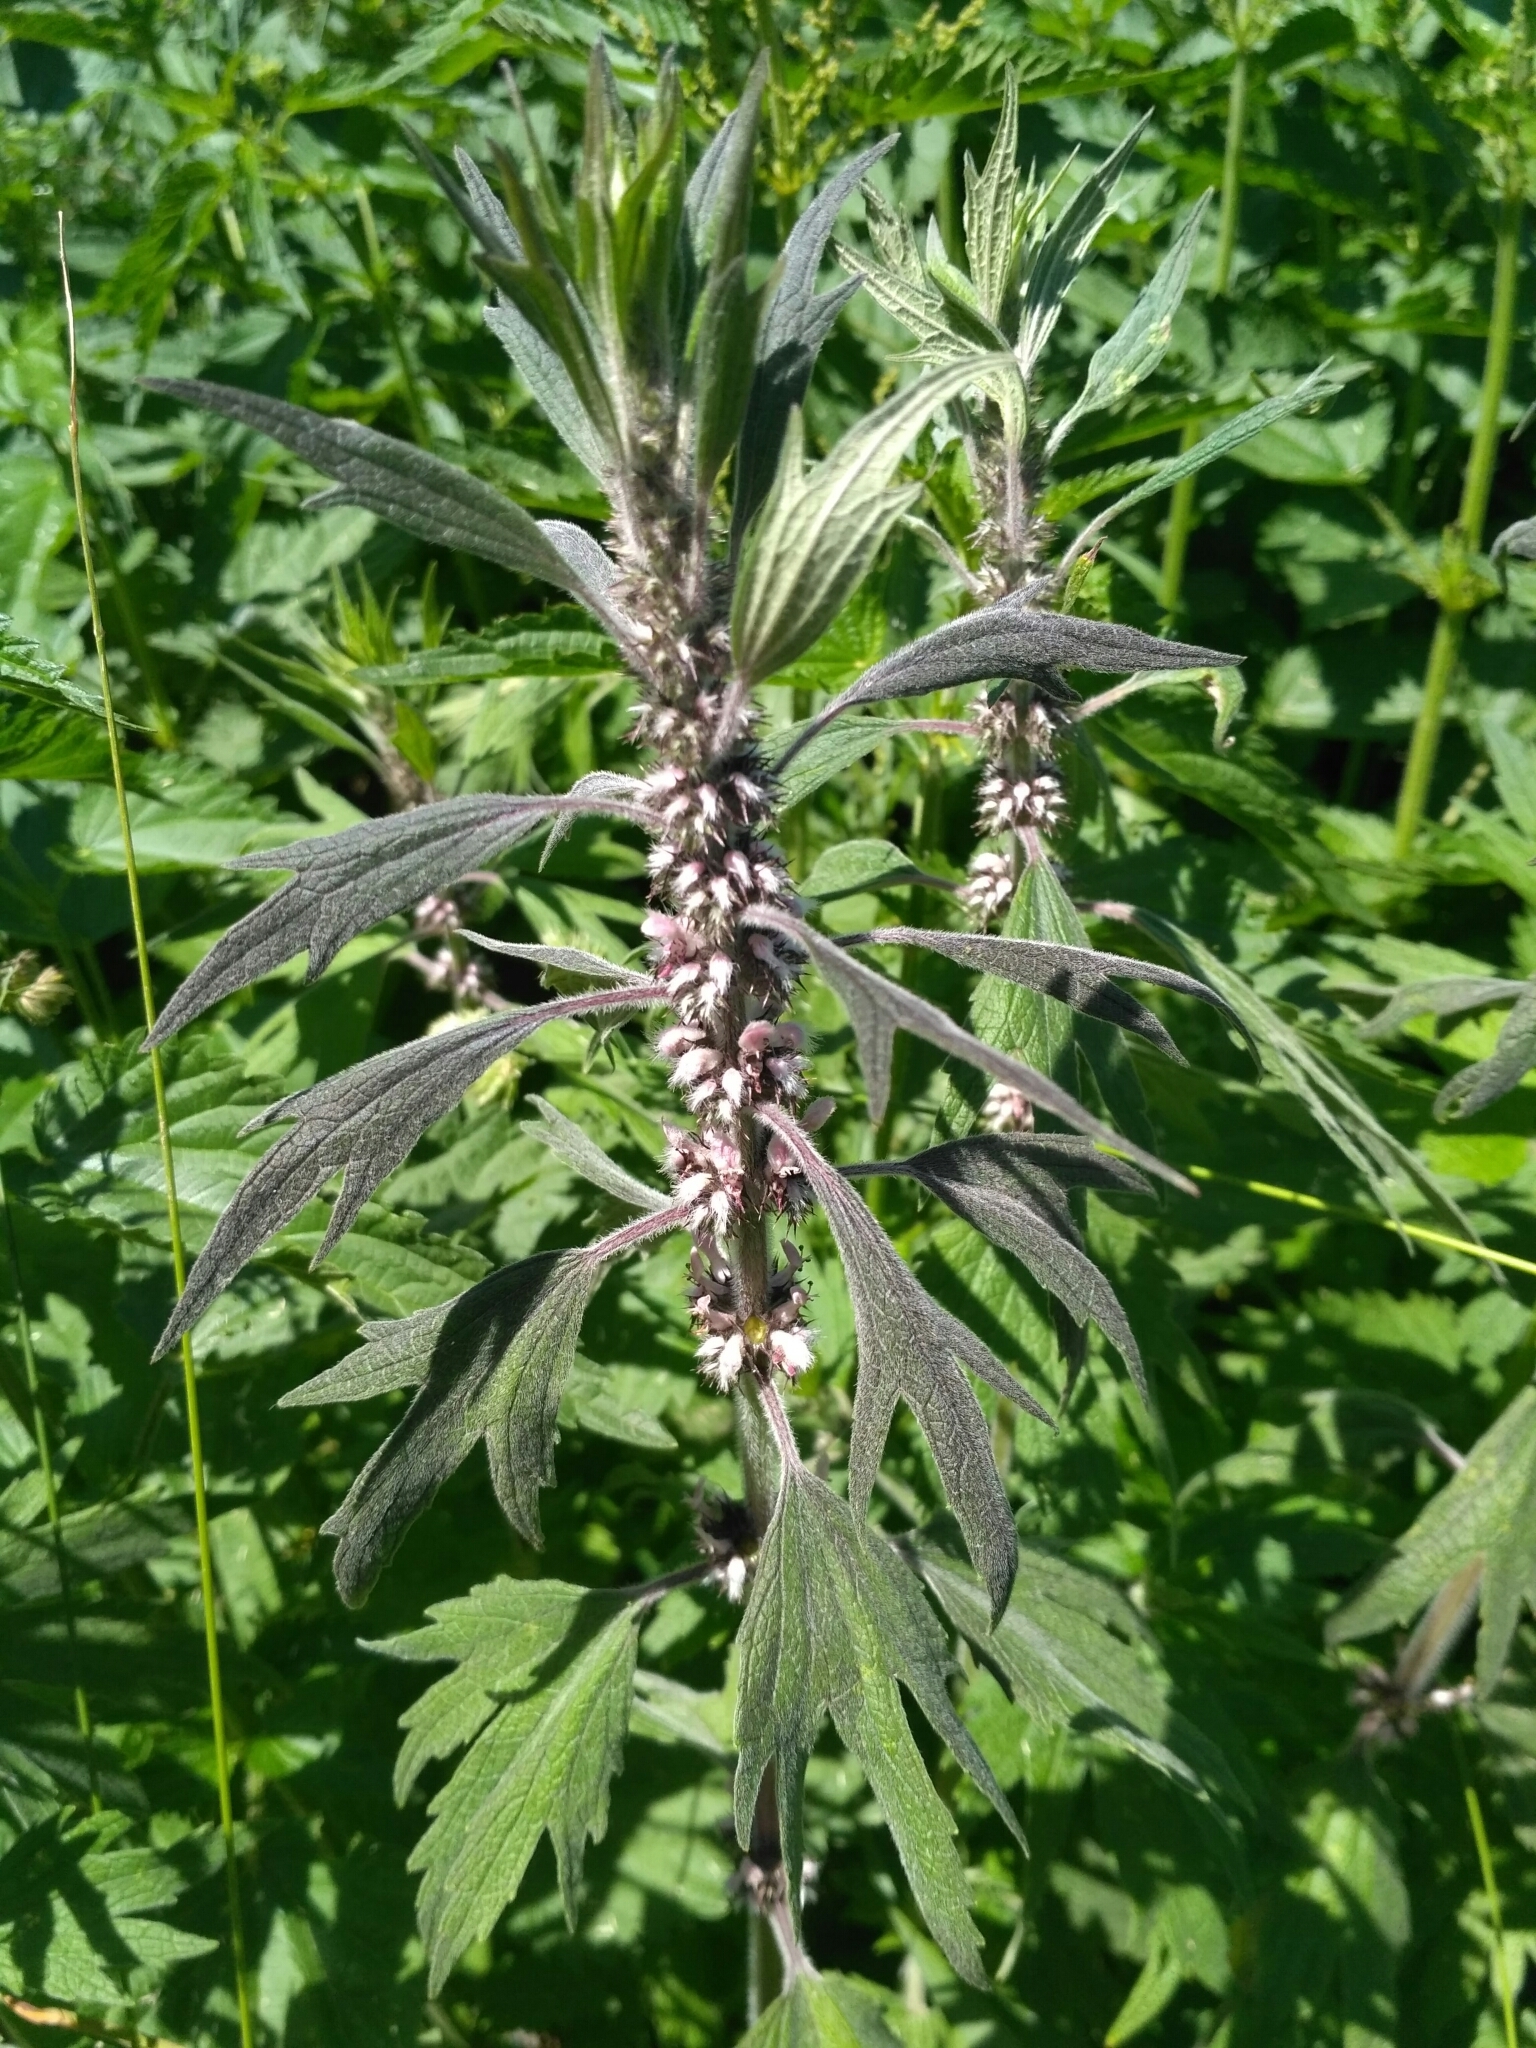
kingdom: Plantae
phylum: Tracheophyta
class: Magnoliopsida
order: Lamiales
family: Lamiaceae
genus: Leonurus
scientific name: Leonurus quinquelobatus
